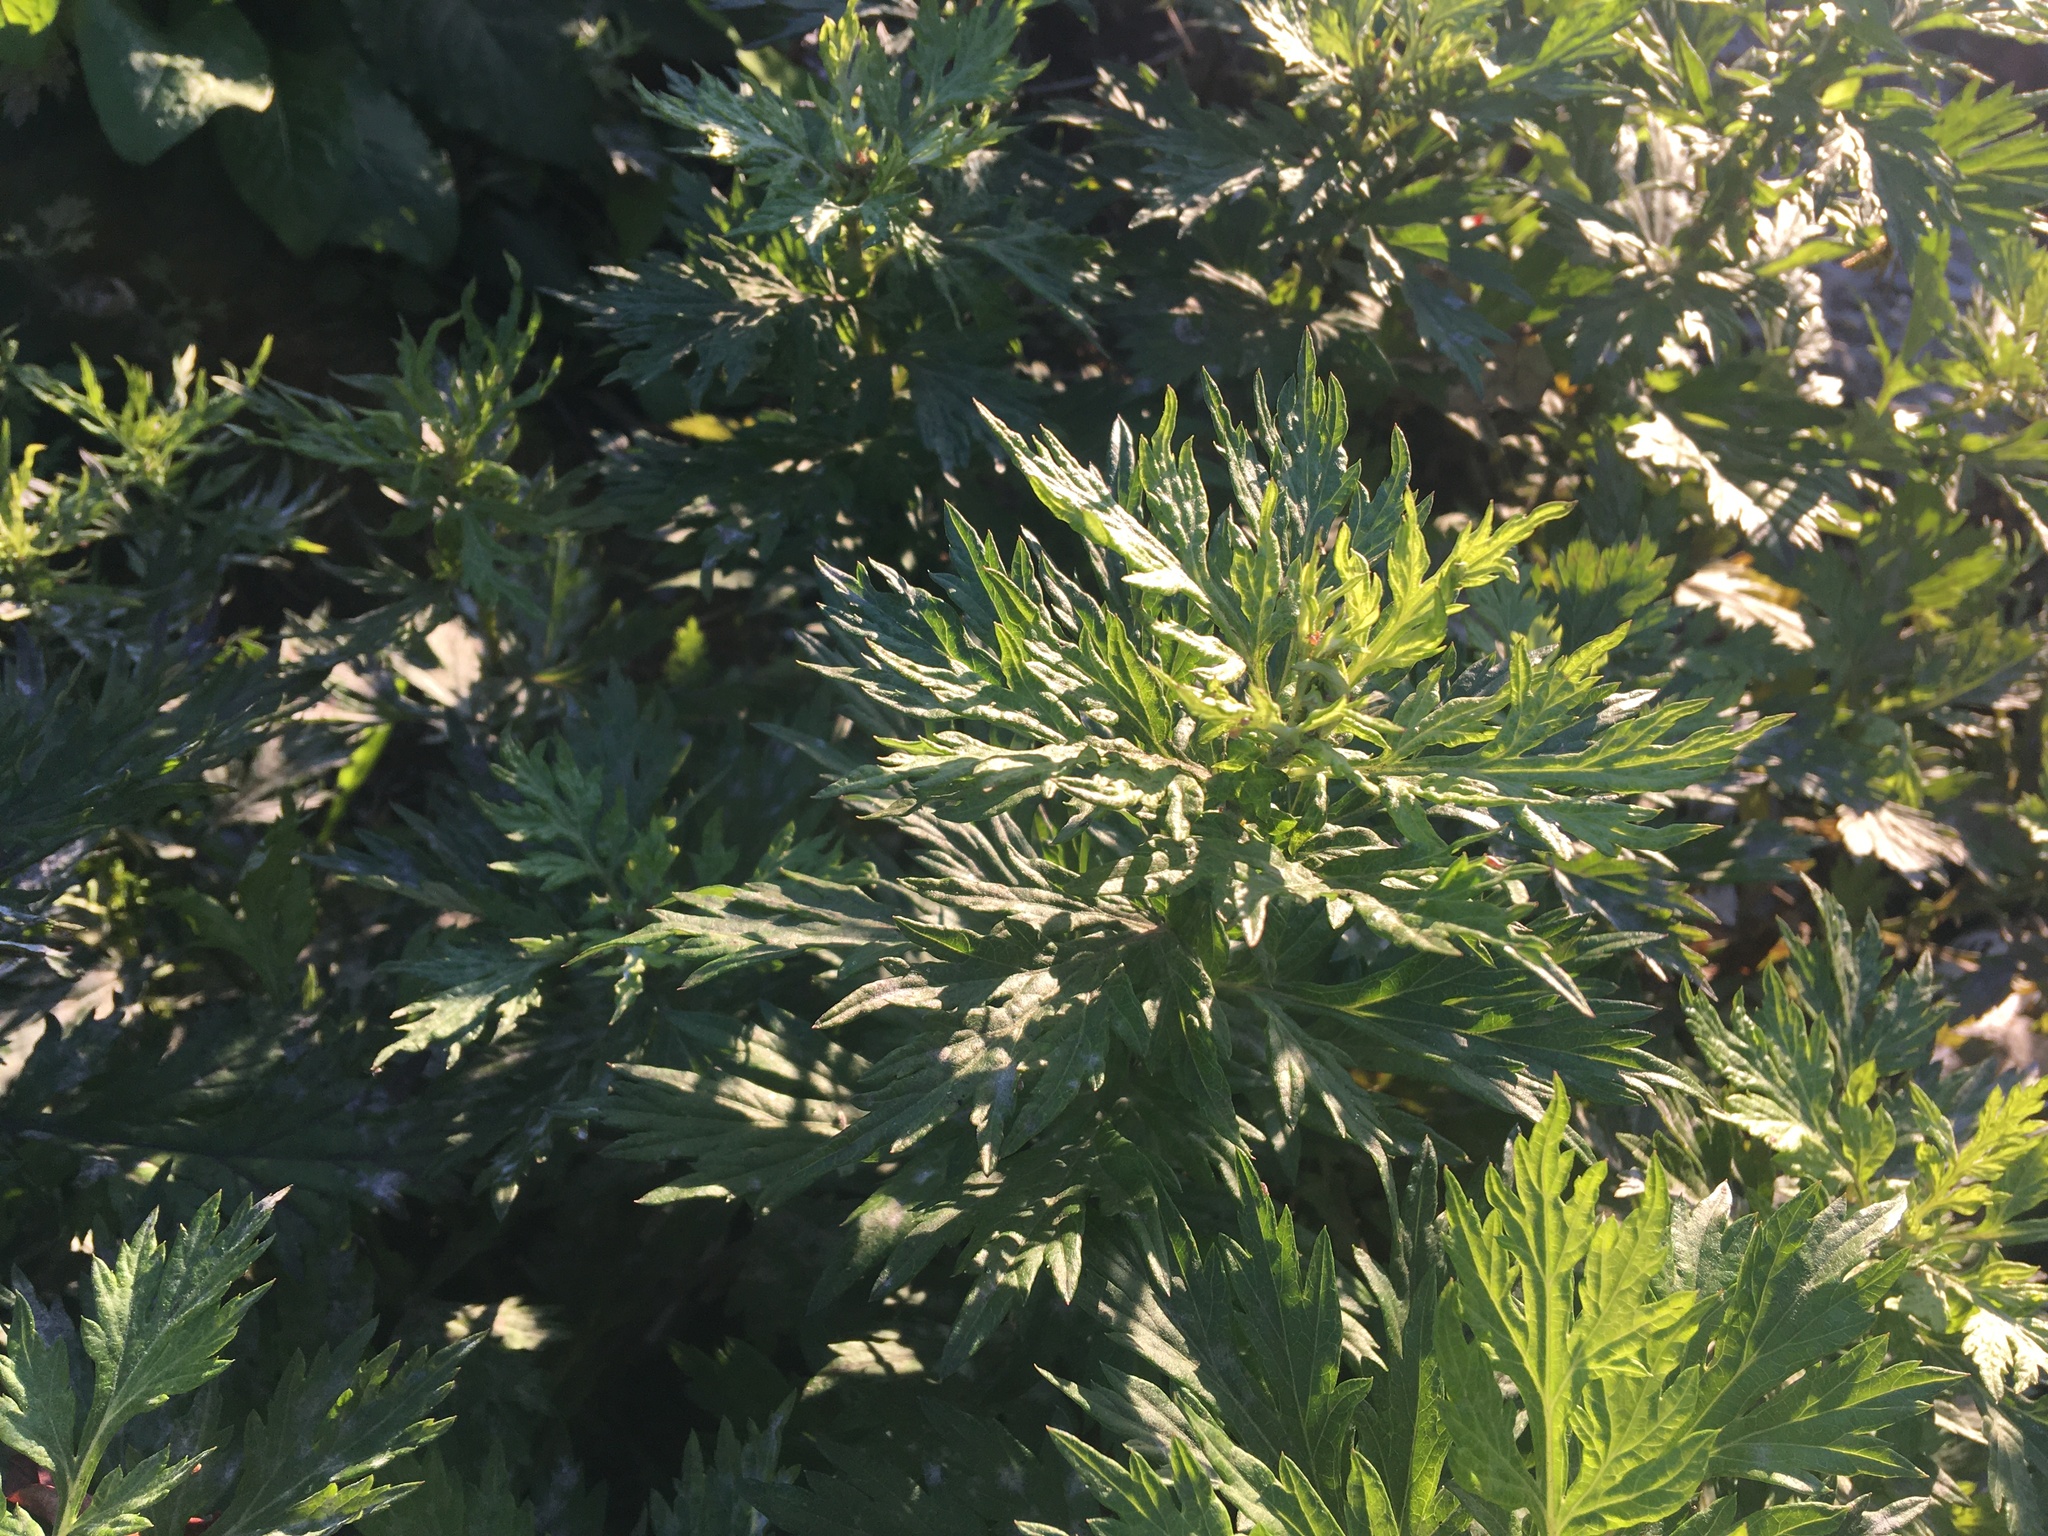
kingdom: Plantae
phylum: Tracheophyta
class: Magnoliopsida
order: Asterales
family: Asteraceae
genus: Artemisia
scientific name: Artemisia vulgaris
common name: Mugwort
